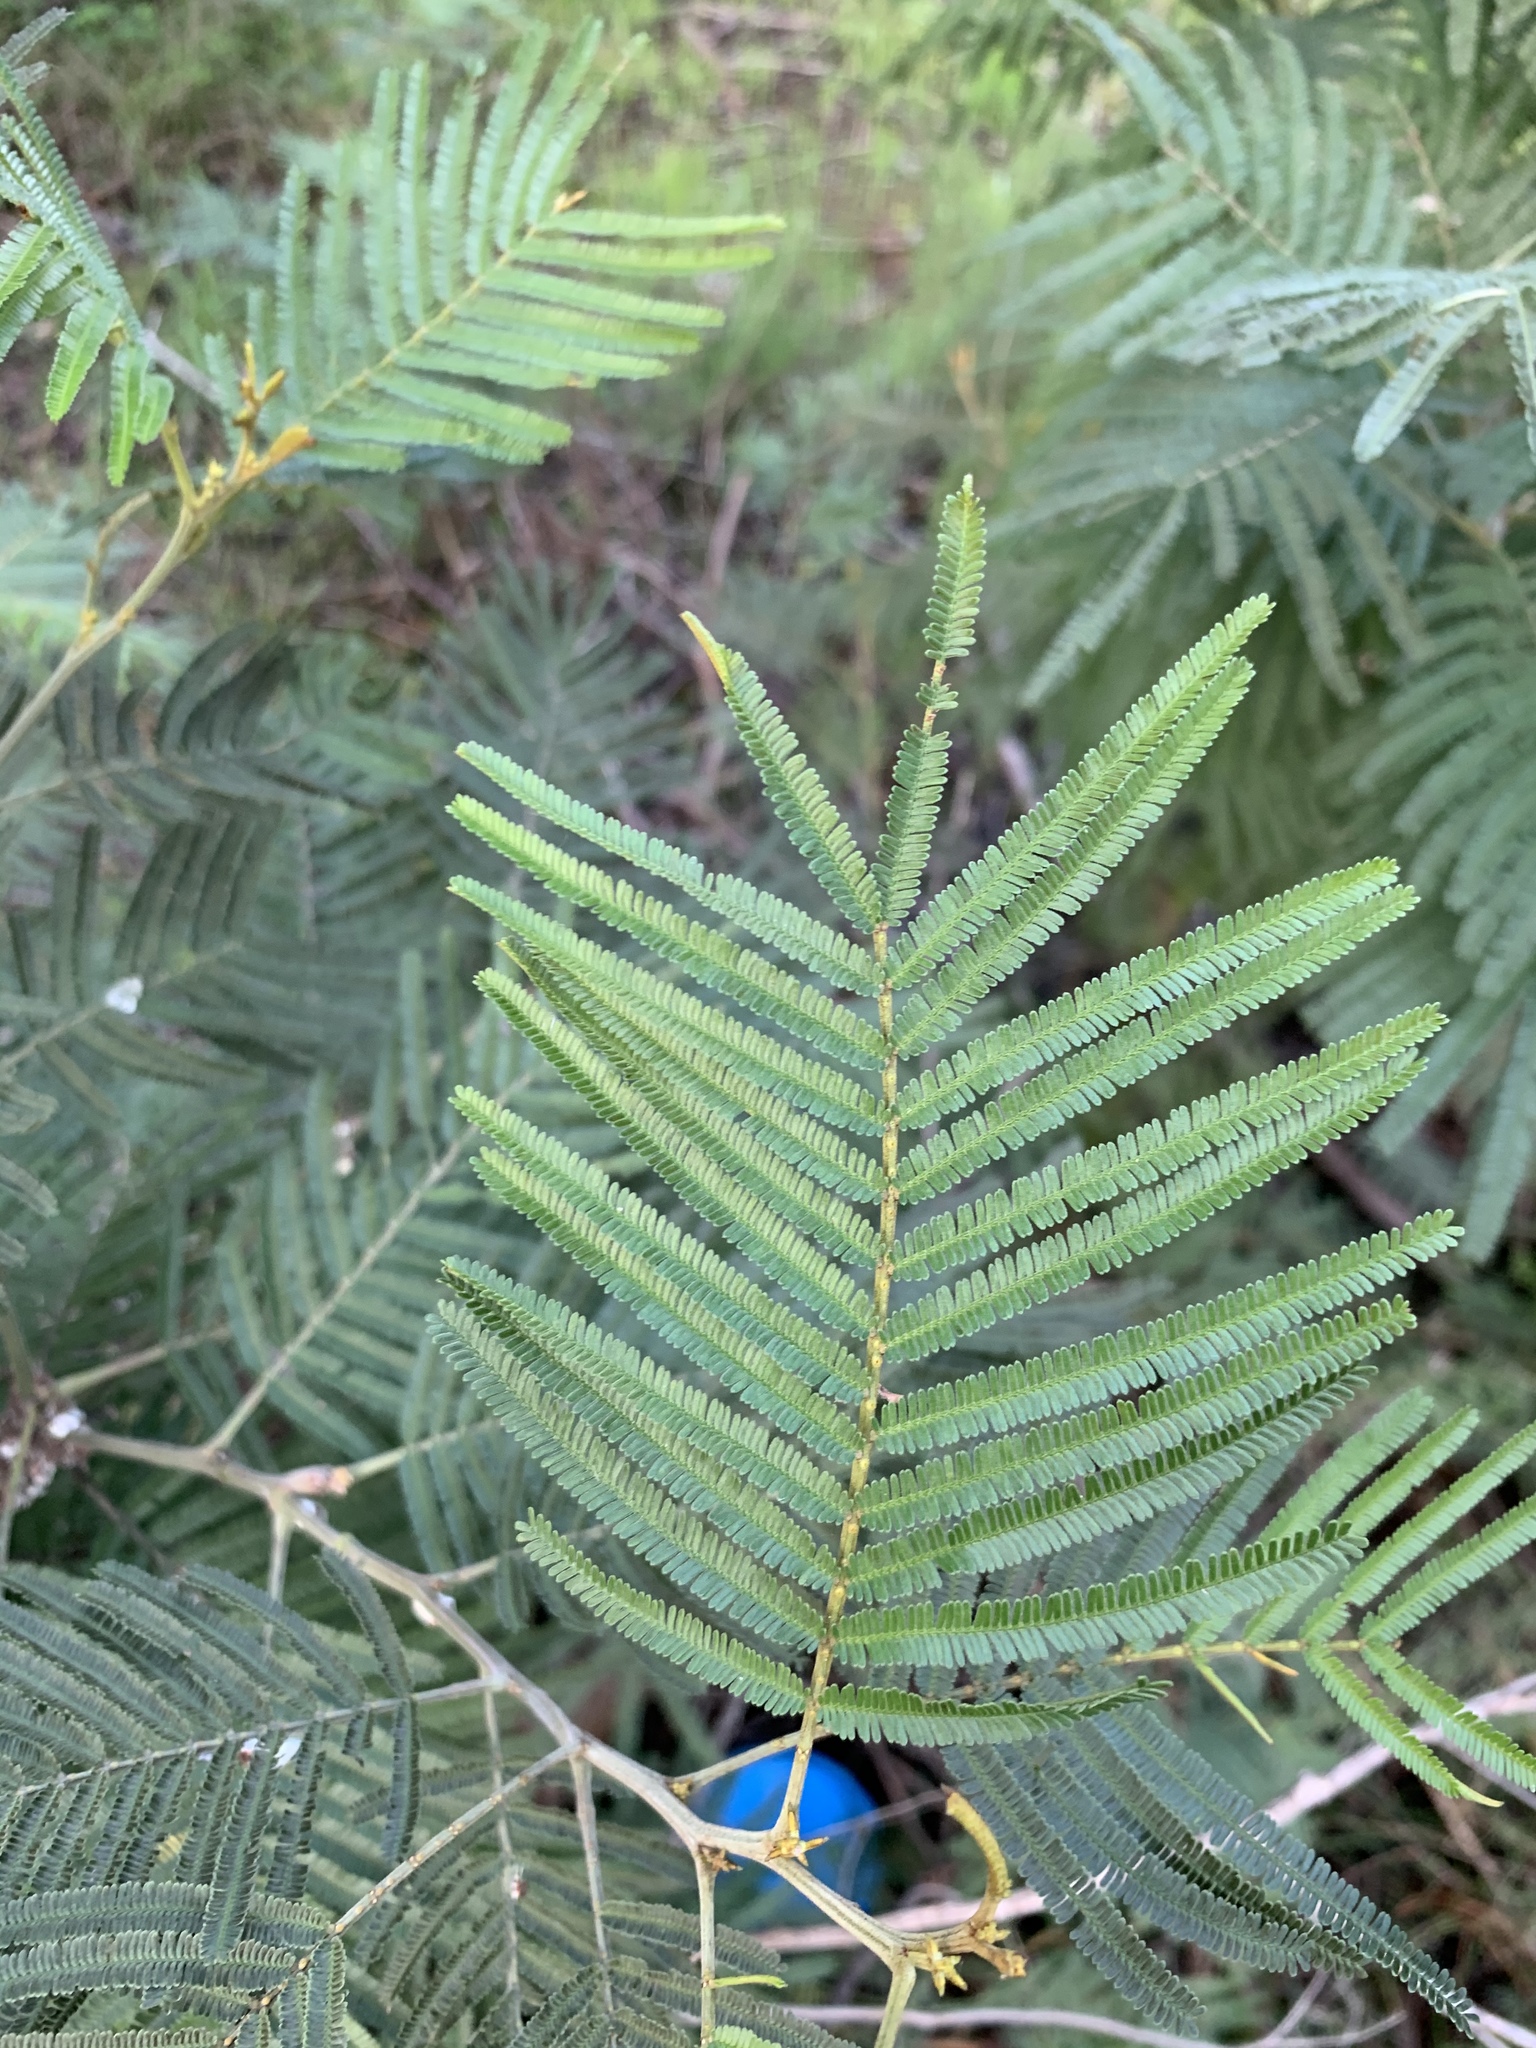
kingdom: Plantae
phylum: Tracheophyta
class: Magnoliopsida
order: Fabales
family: Fabaceae
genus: Acacia
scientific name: Acacia mearnsii
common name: Black wattle
